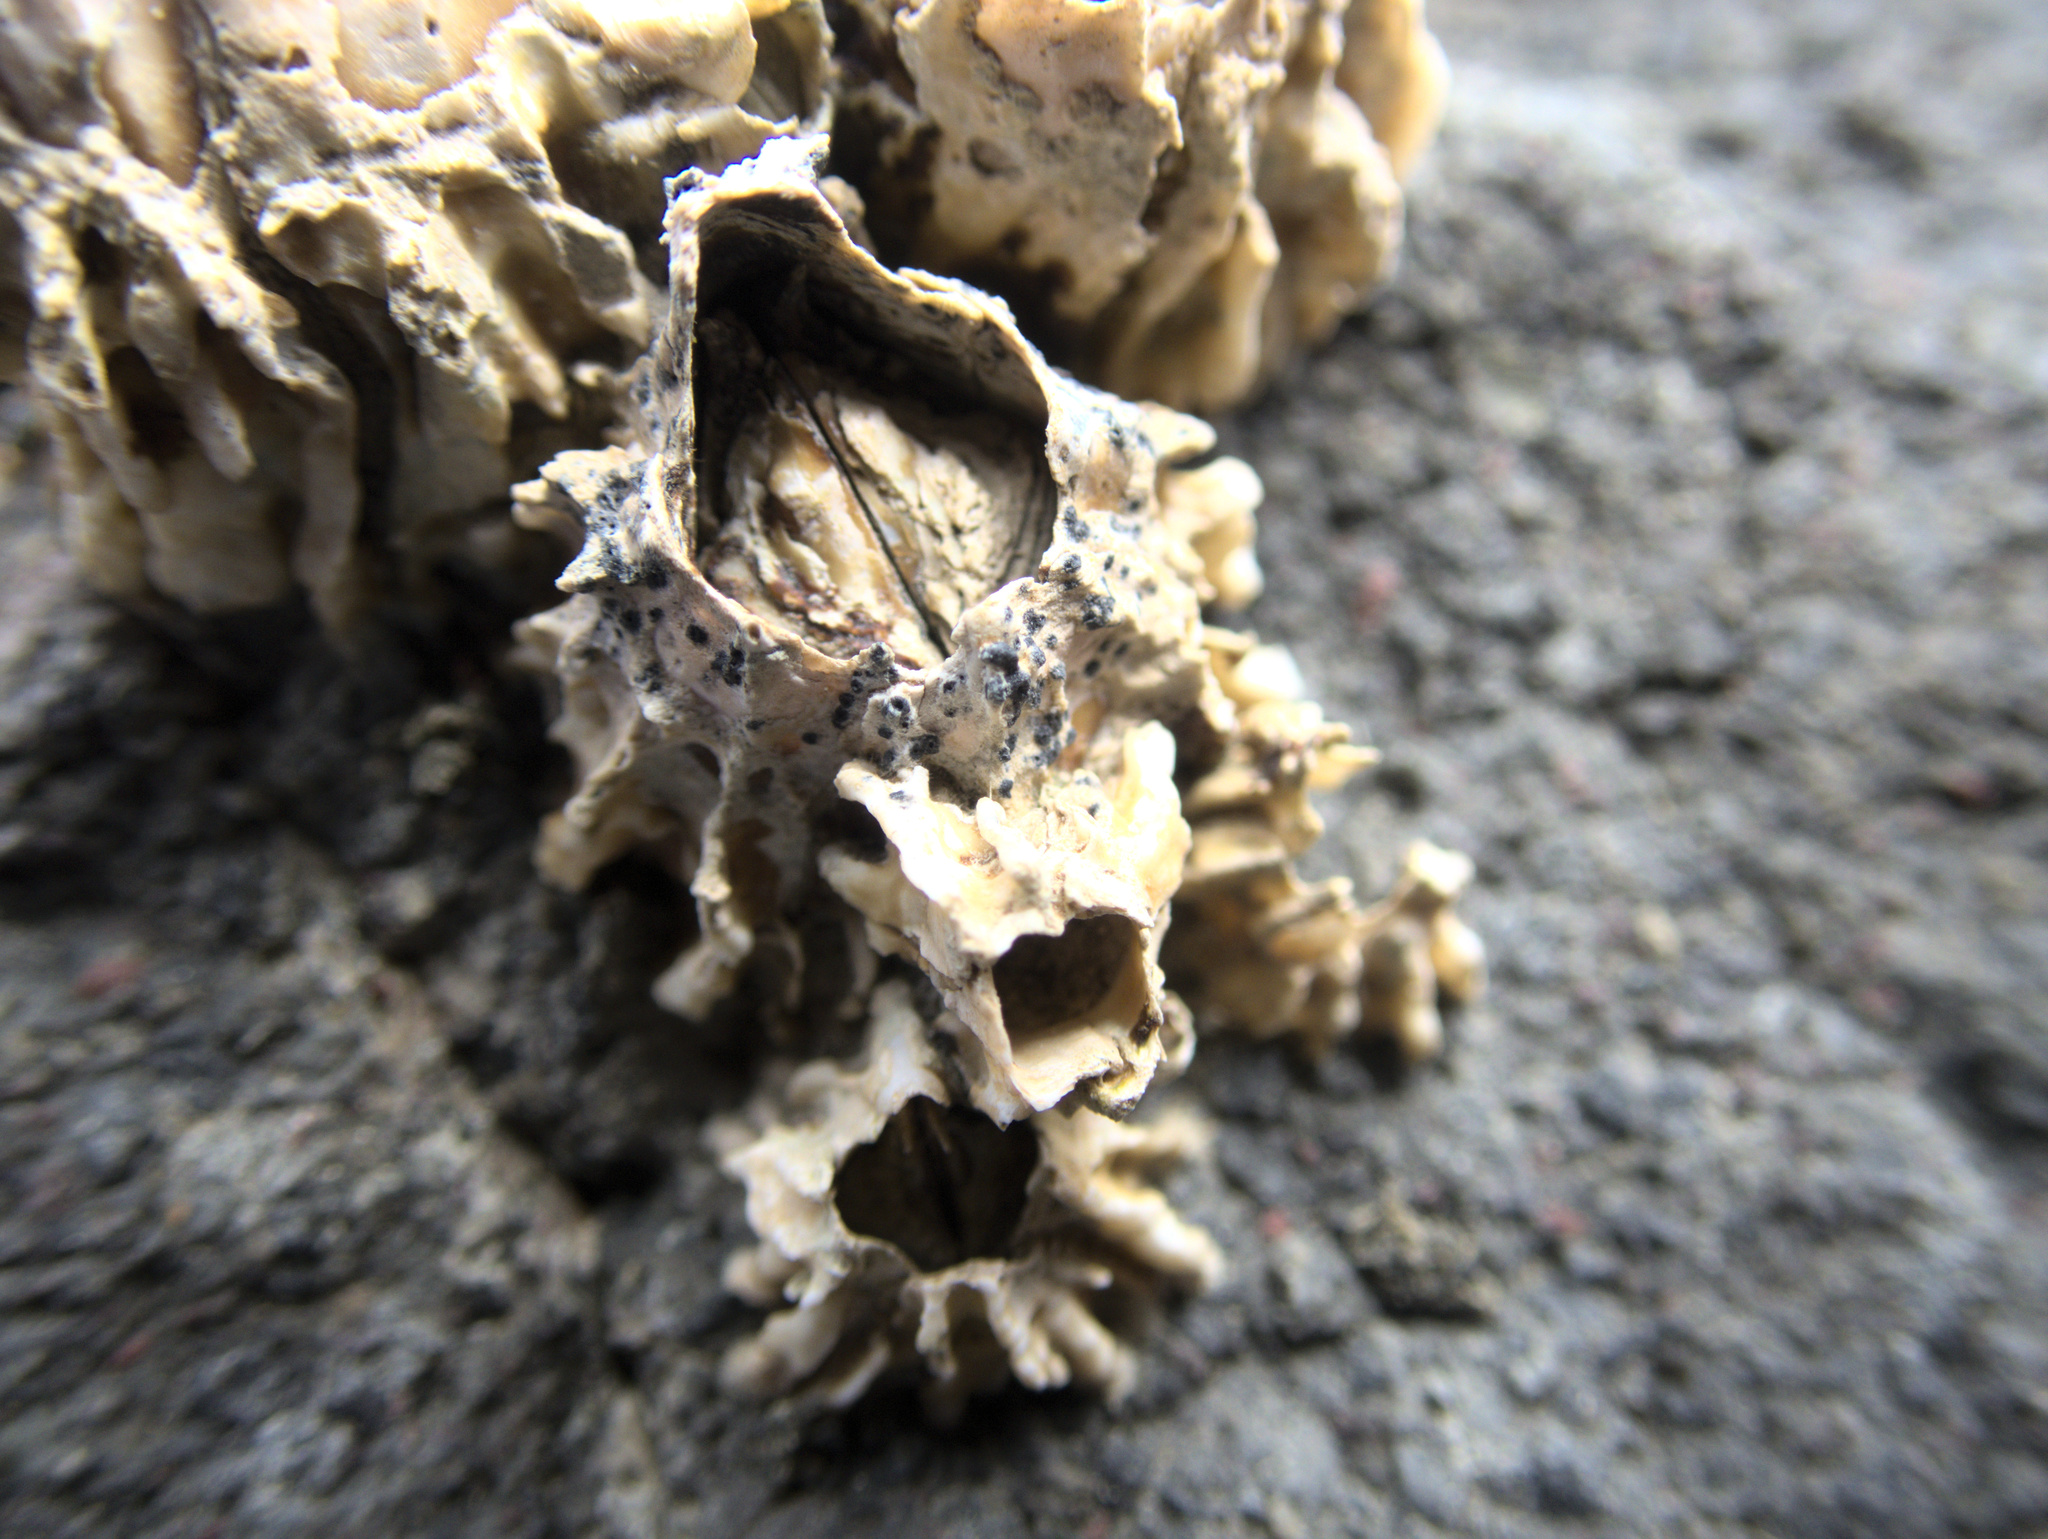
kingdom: Animalia
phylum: Arthropoda
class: Maxillopoda
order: Sessilia
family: Tetraclitidae
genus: Epopella
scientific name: Epopella plicata
